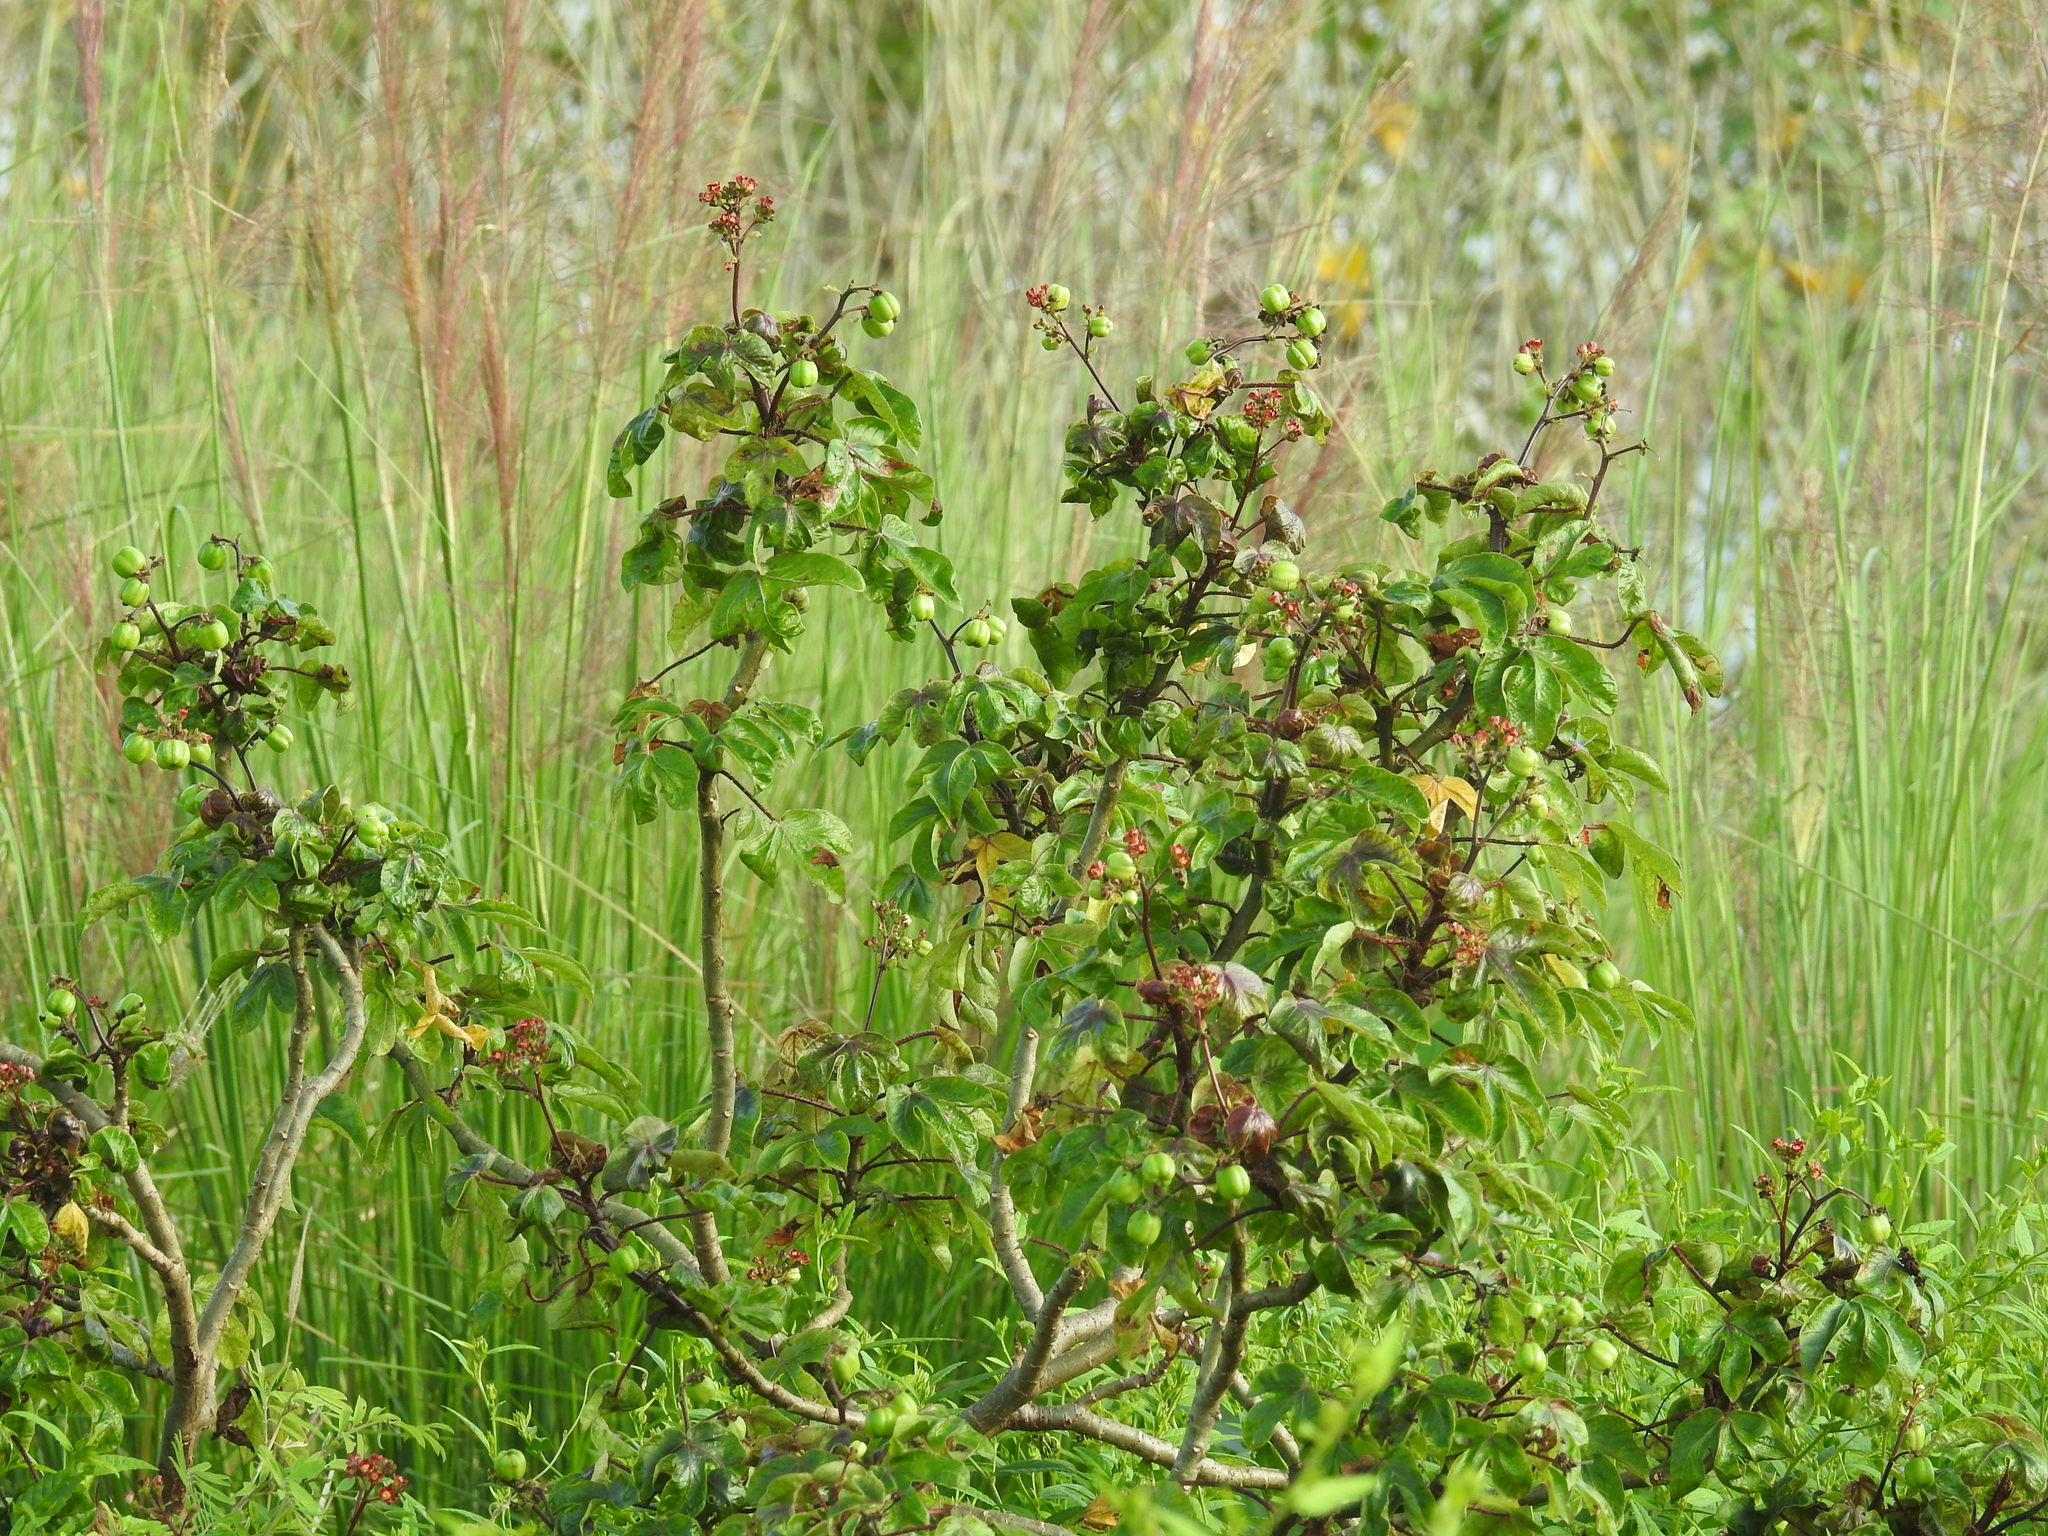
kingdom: Plantae
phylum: Tracheophyta
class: Magnoliopsida
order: Malpighiales
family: Euphorbiaceae
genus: Jatropha
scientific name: Jatropha gossypiifolia
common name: Bellyache bush
